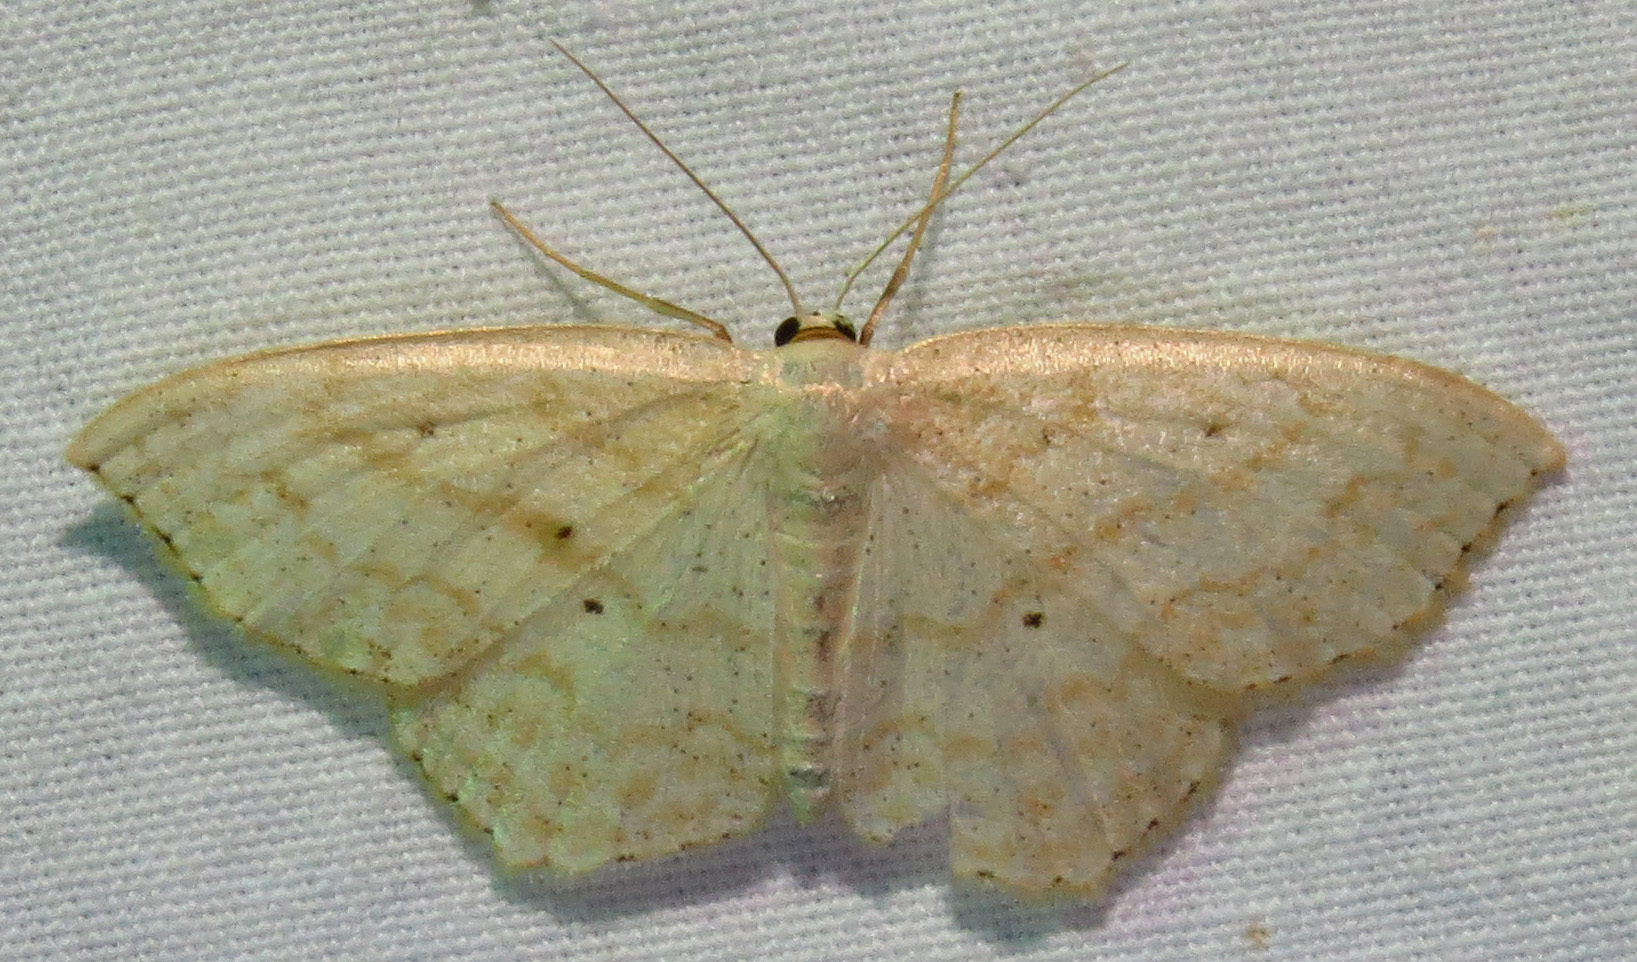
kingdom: Animalia
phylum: Arthropoda
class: Insecta
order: Lepidoptera
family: Geometridae
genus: Scopula
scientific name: Scopula limboundata
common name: Large lace border
